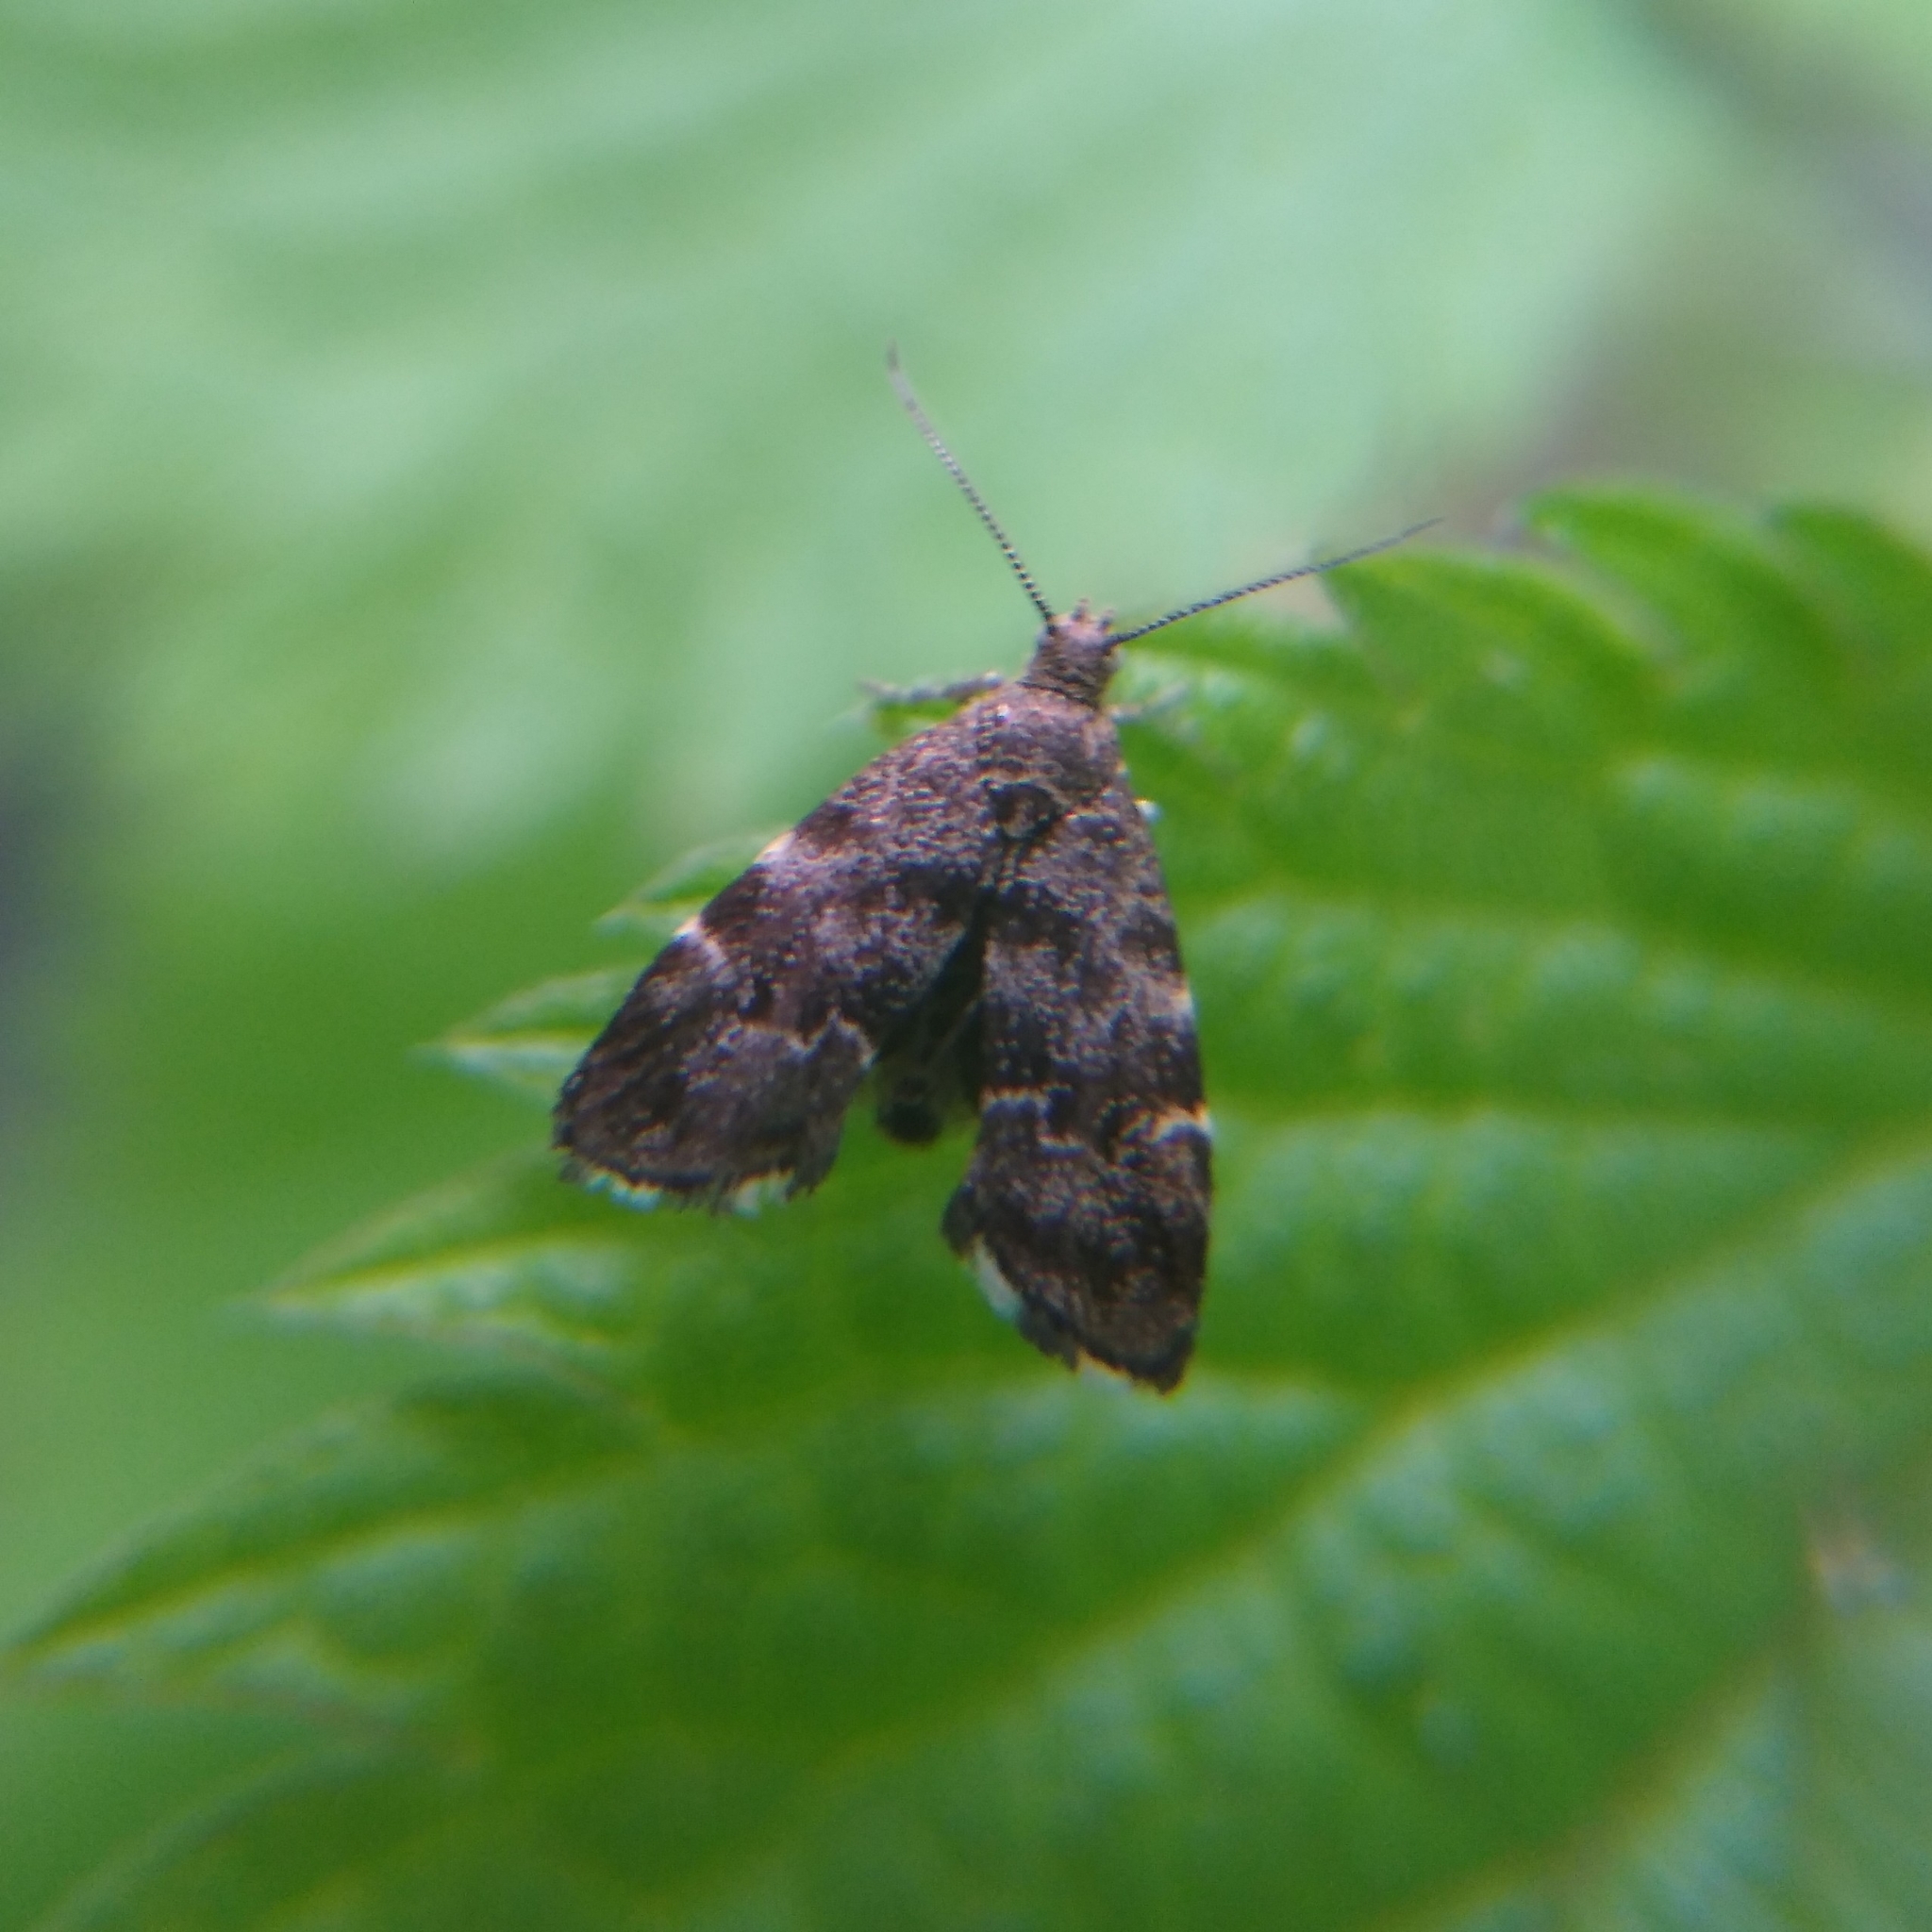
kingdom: Animalia
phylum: Arthropoda
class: Insecta
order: Lepidoptera
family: Choreutidae
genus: Anthophila
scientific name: Anthophila fabriciana
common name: Nettle-tap
